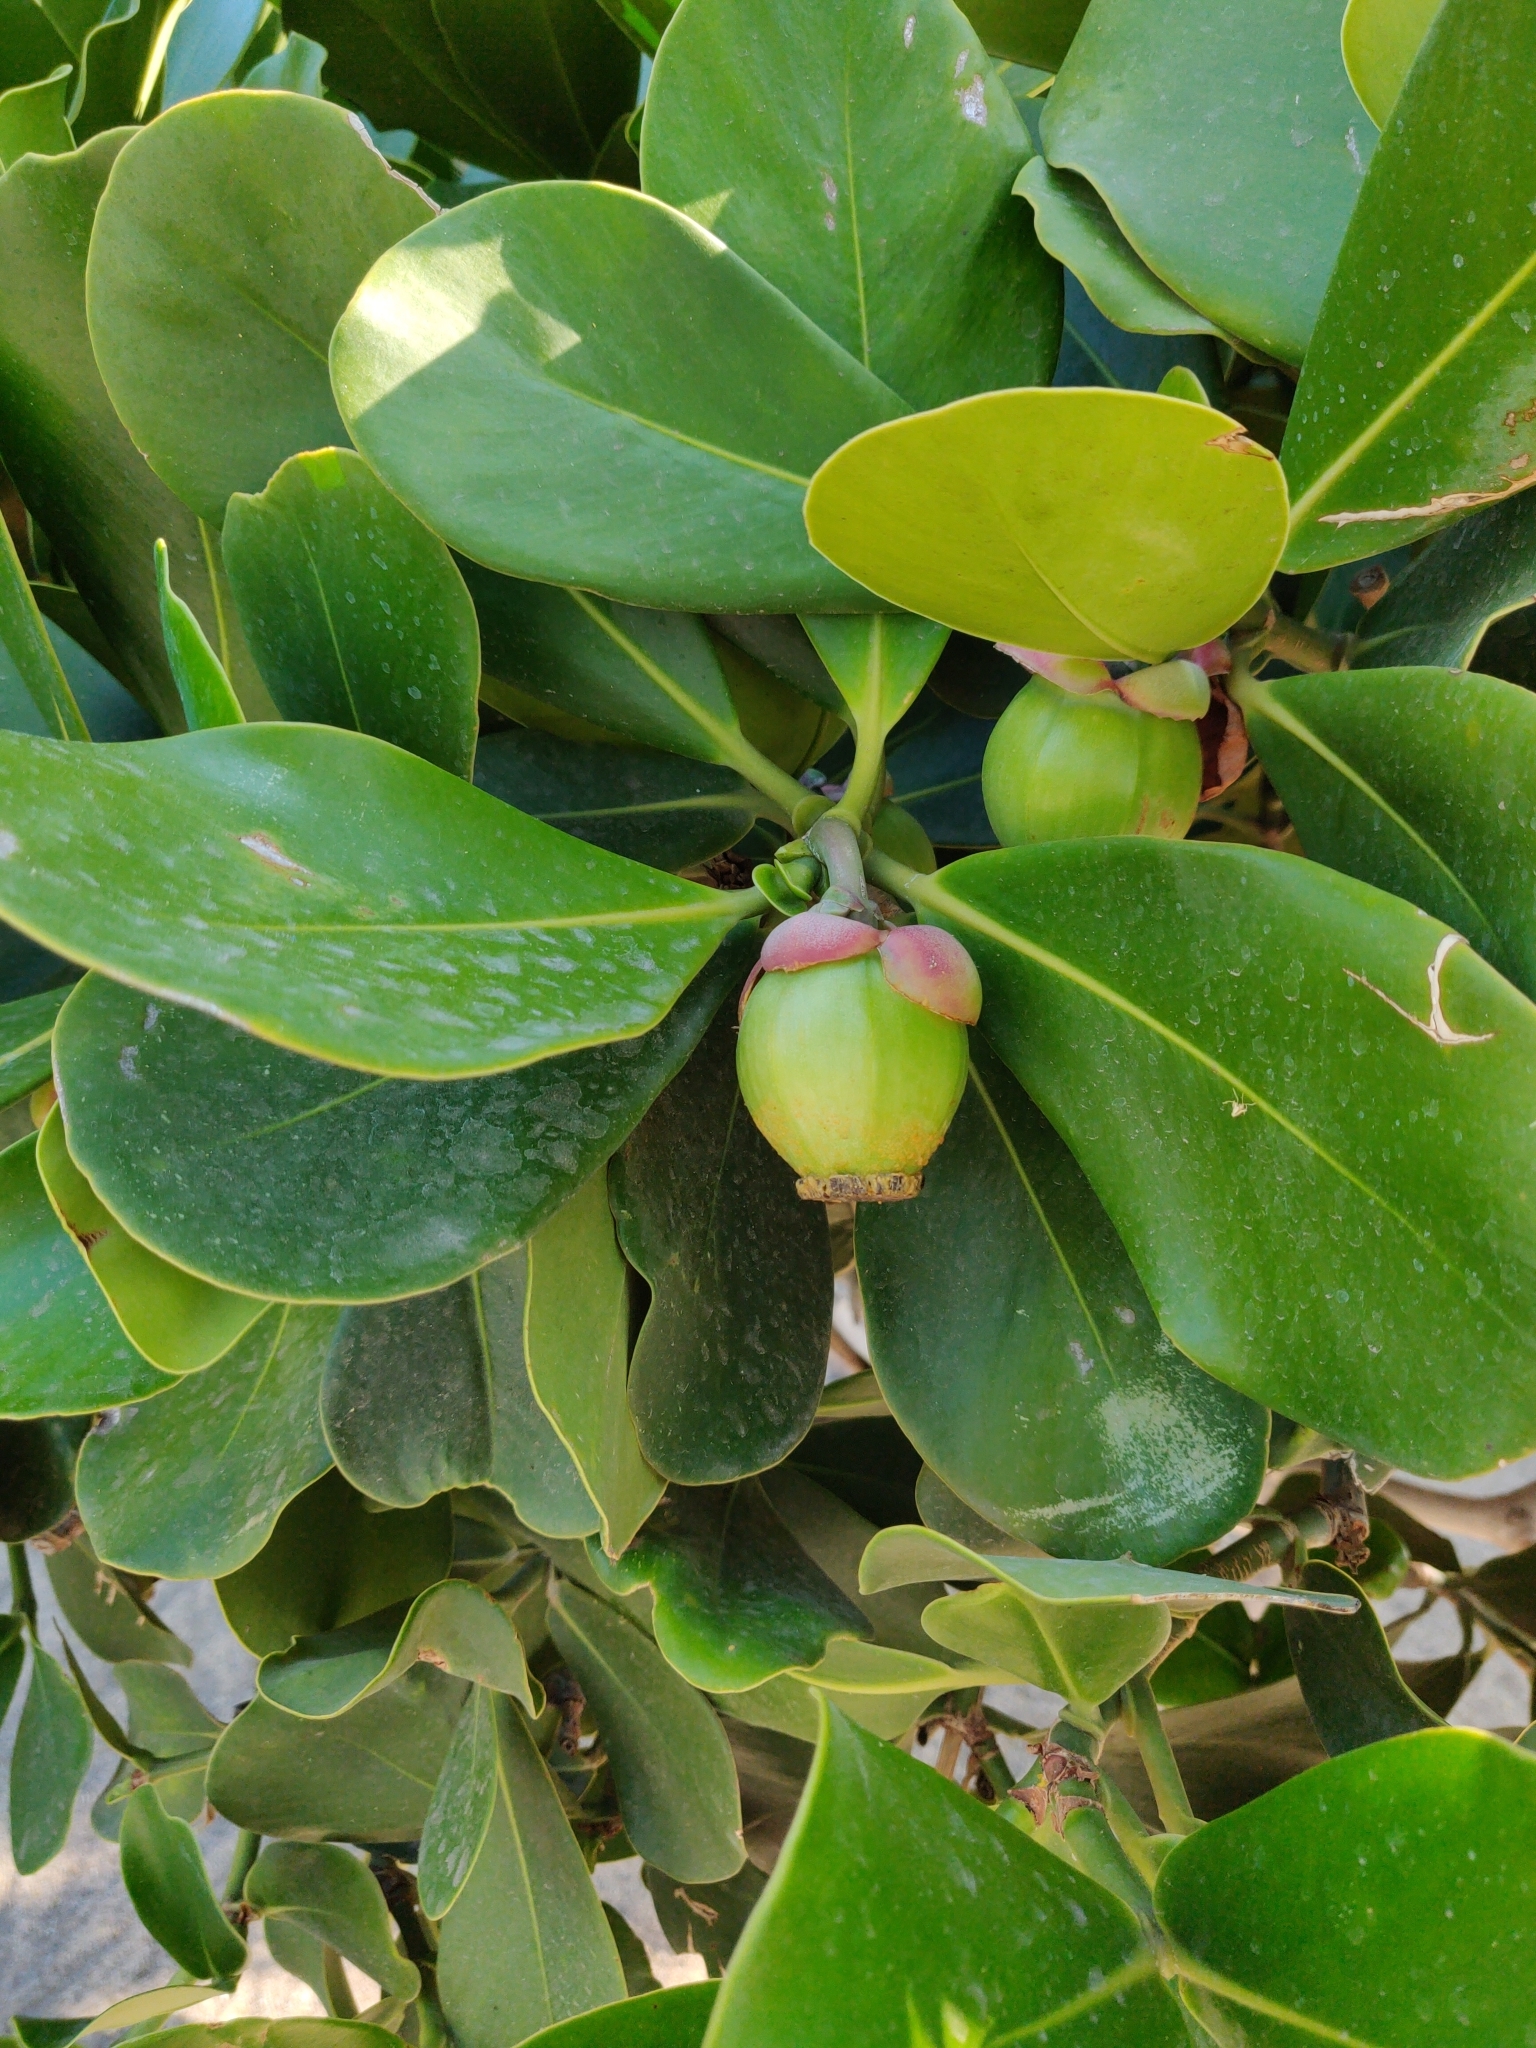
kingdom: Plantae
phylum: Tracheophyta
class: Magnoliopsida
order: Malpighiales
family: Clusiaceae
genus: Clusia
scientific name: Clusia rosea
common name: Scotch attorney
